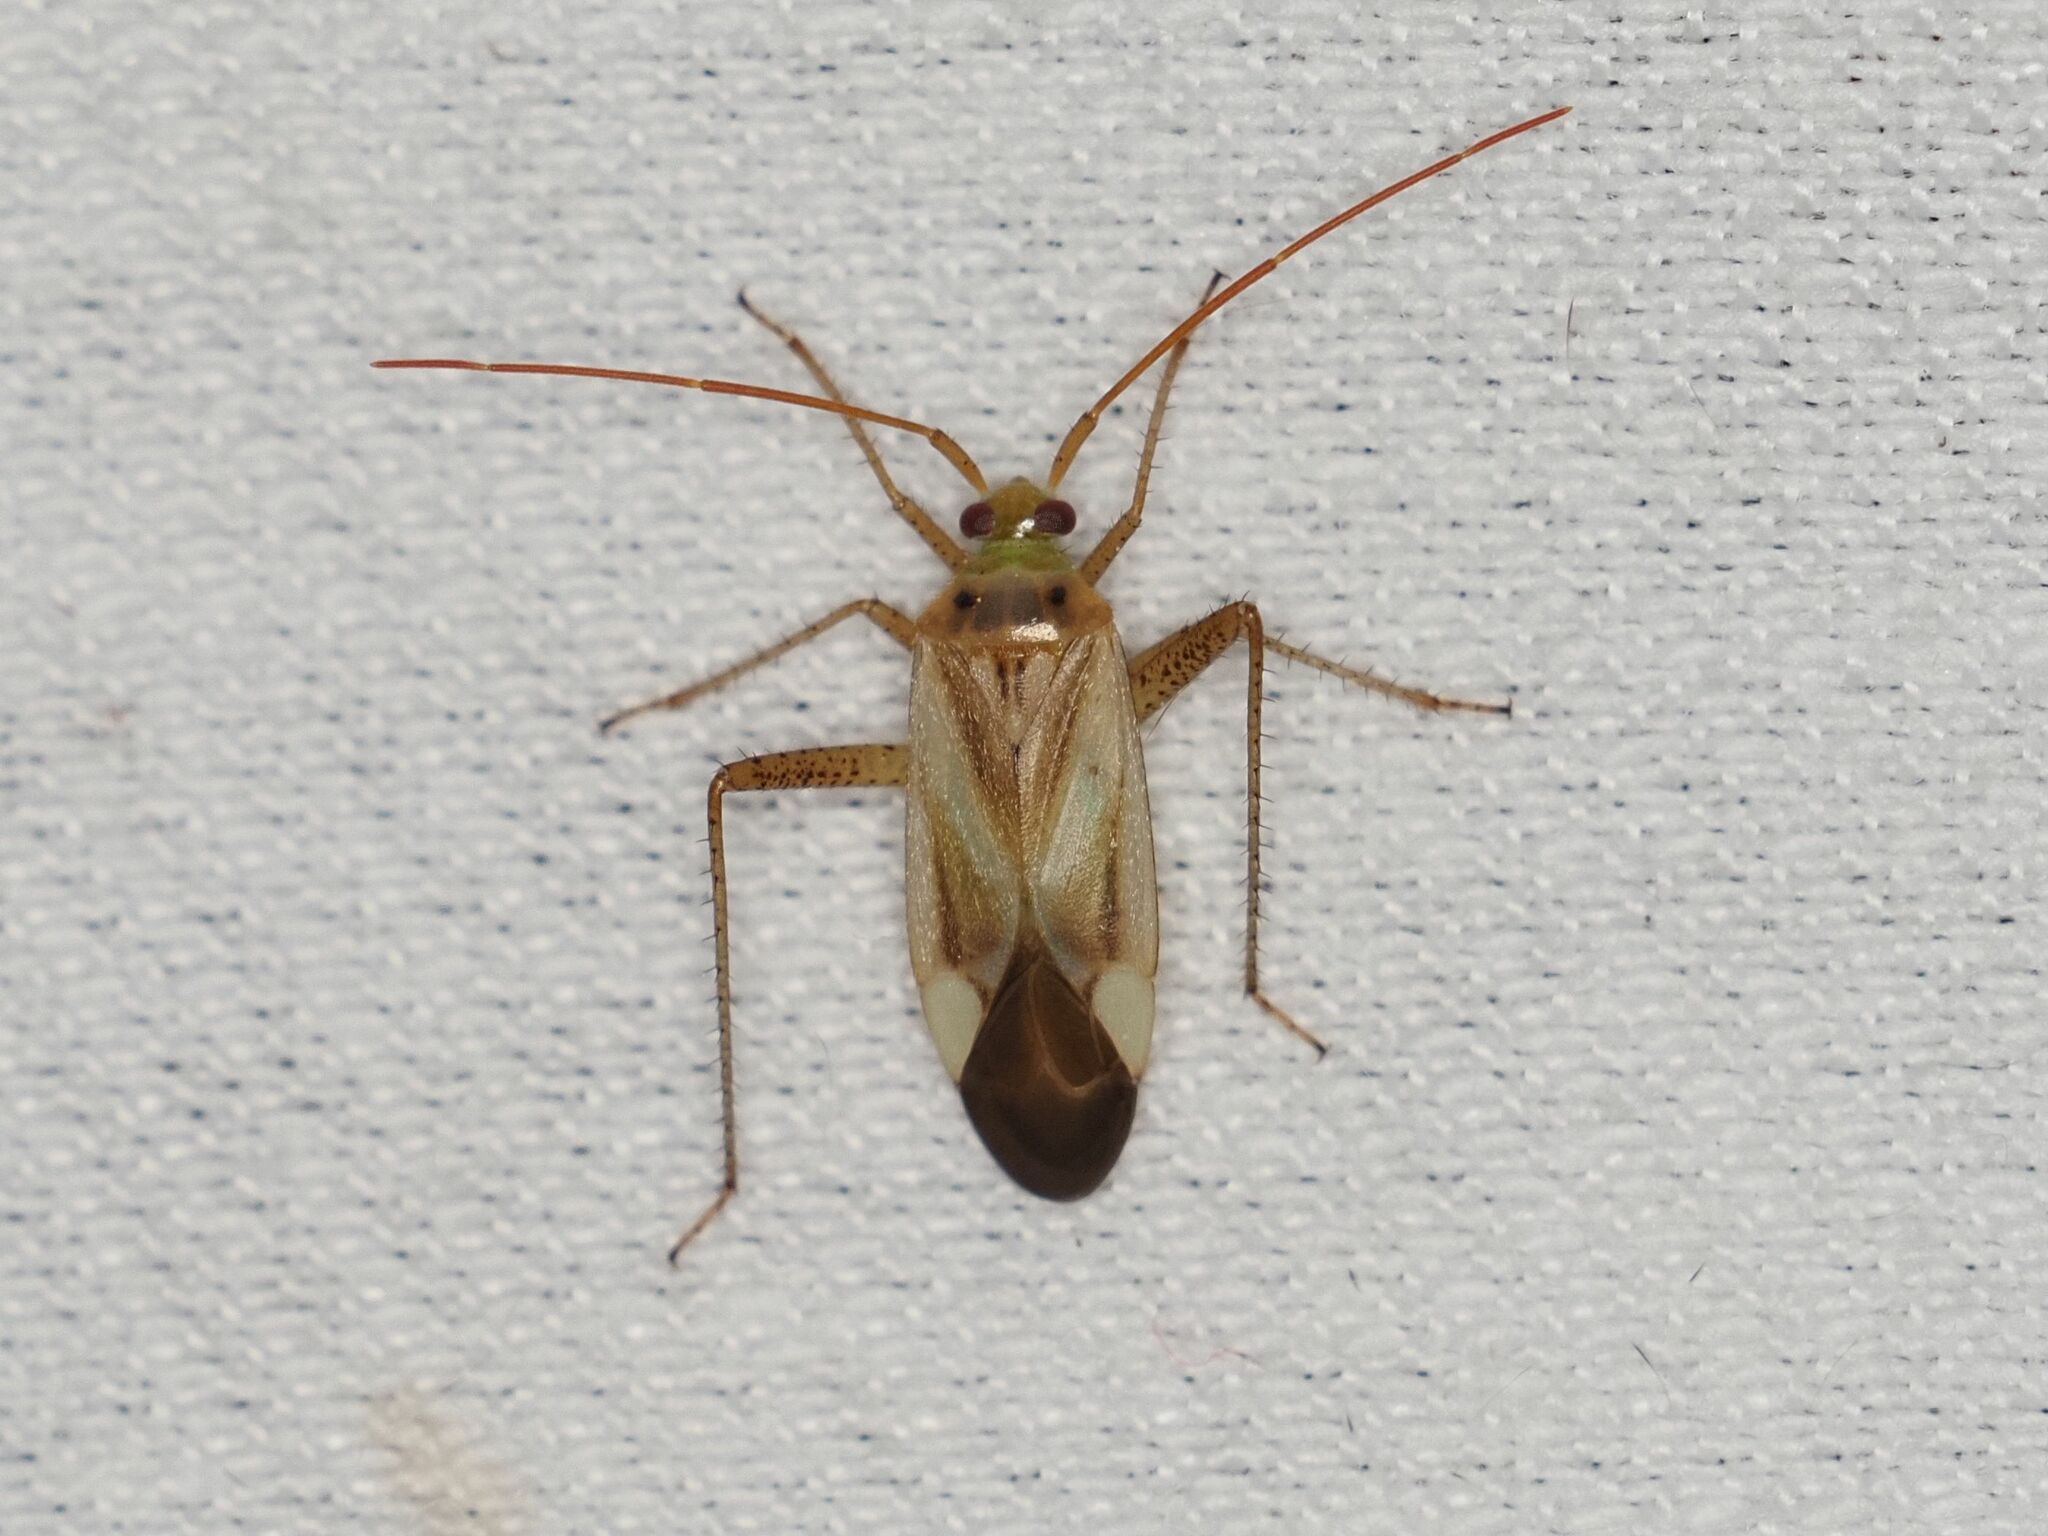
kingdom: Animalia
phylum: Arthropoda
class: Insecta
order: Hemiptera
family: Miridae
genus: Adelphocoris
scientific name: Adelphocoris lineolatus
